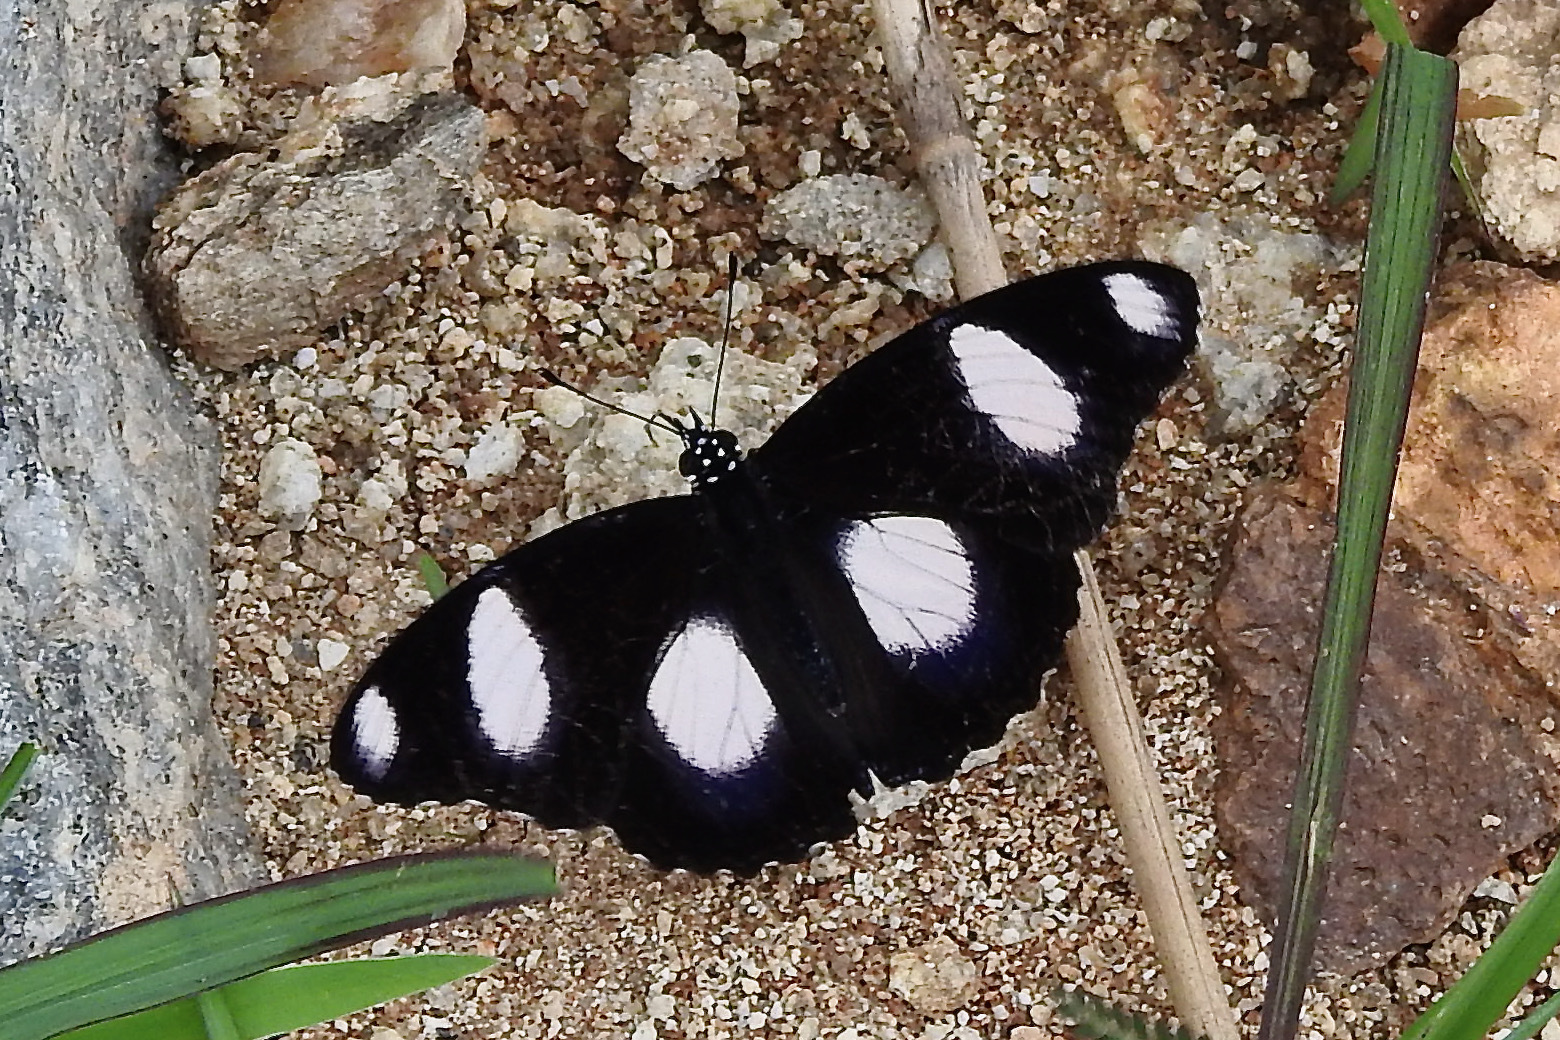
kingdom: Animalia
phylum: Arthropoda
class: Insecta
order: Lepidoptera
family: Nymphalidae
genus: Hypolimnas
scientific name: Hypolimnas misippus
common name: False plain tiger
